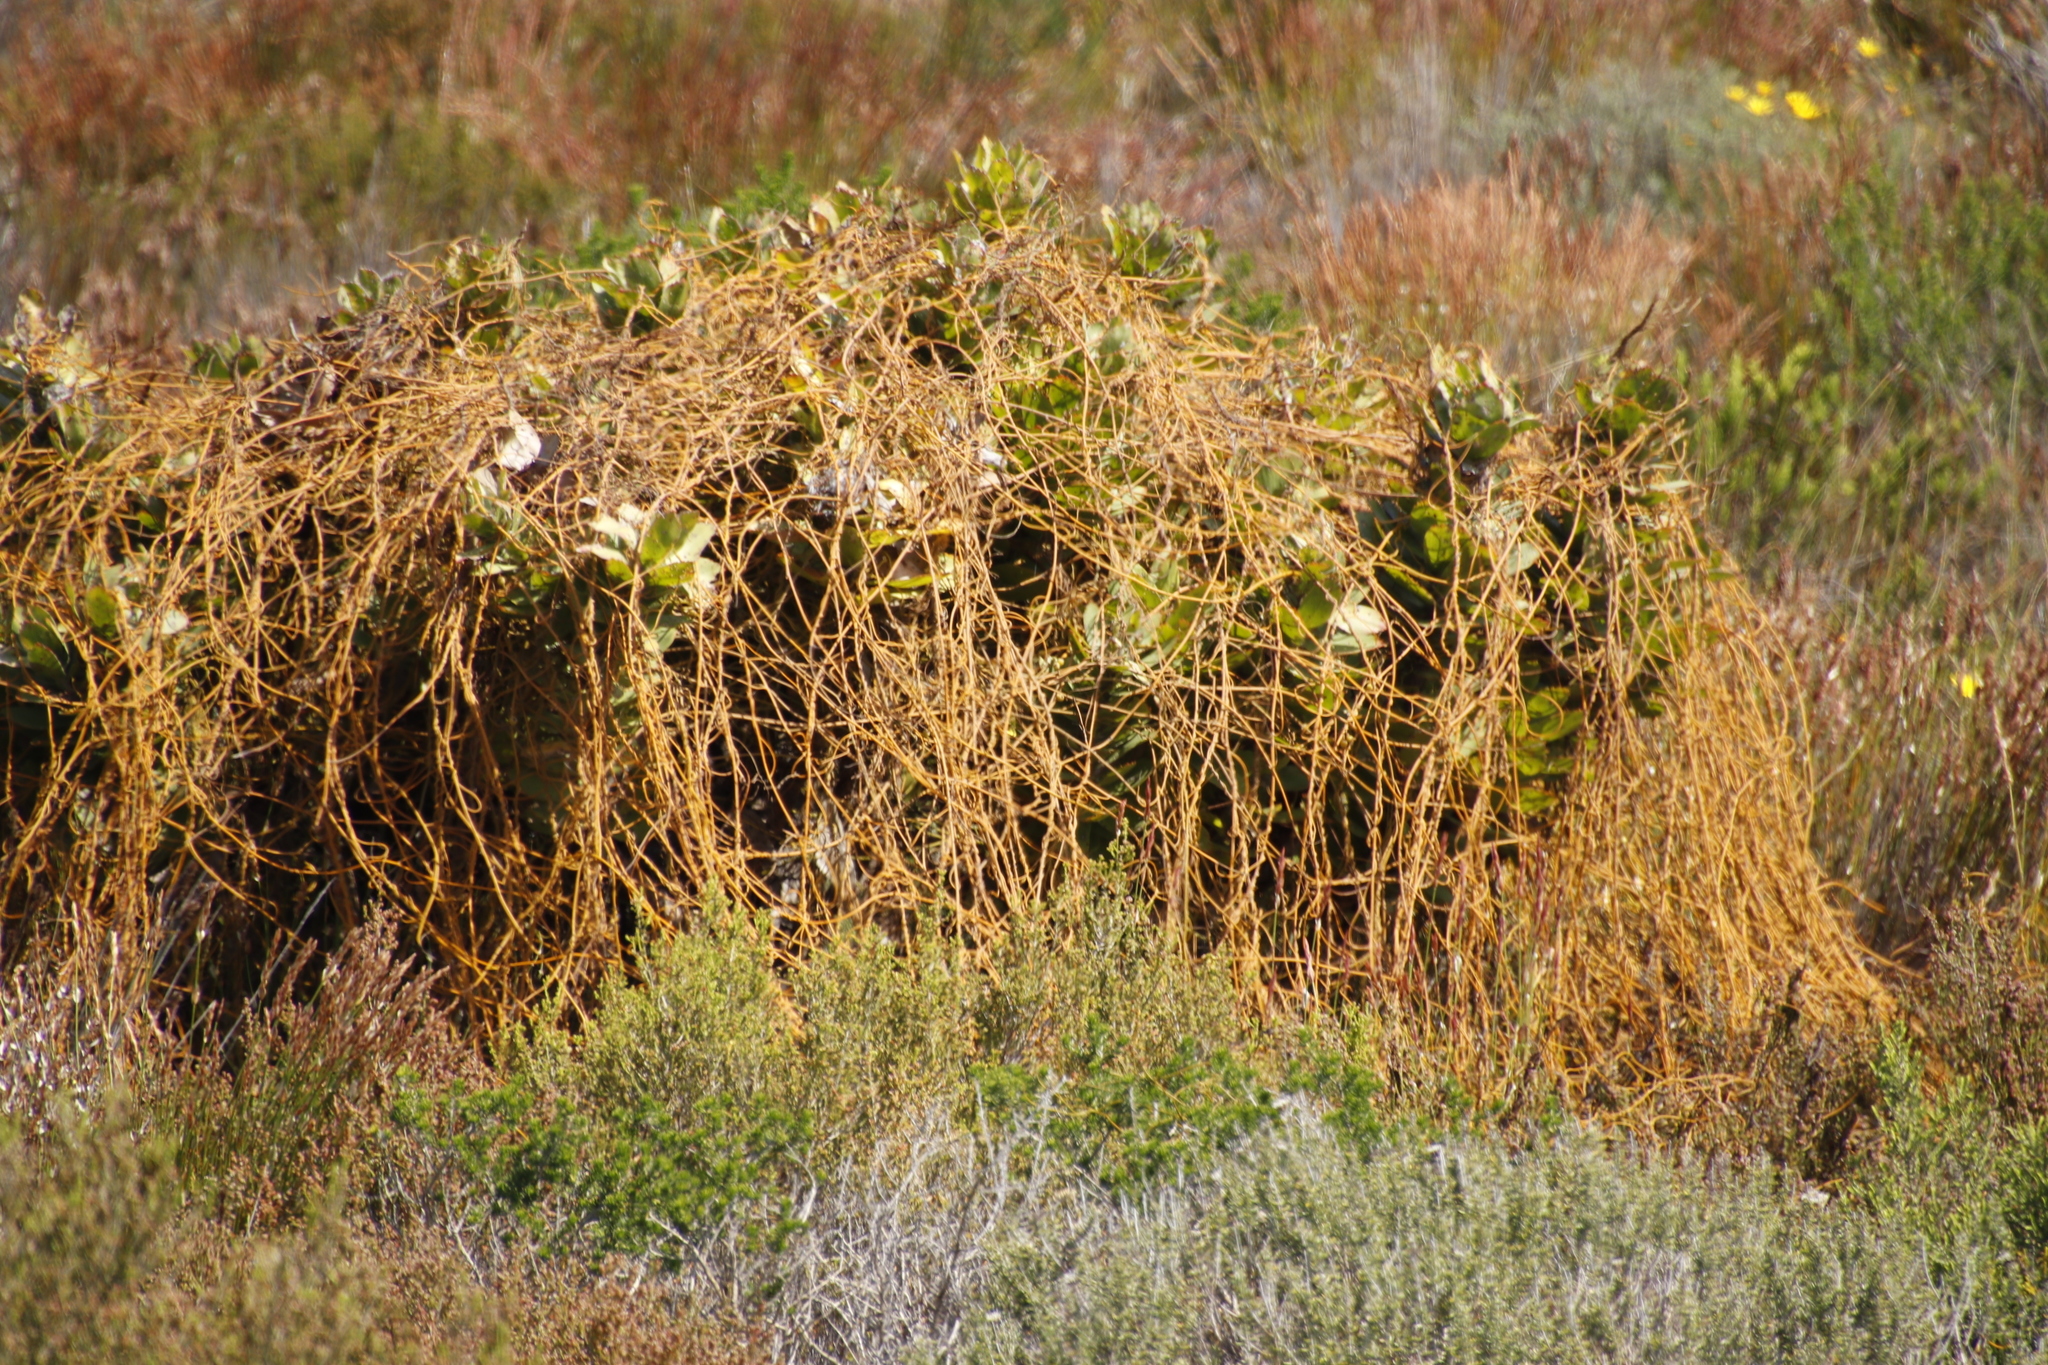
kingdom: Plantae
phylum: Tracheophyta
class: Magnoliopsida
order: Laurales
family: Lauraceae
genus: Cassytha
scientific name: Cassytha ciliolata
